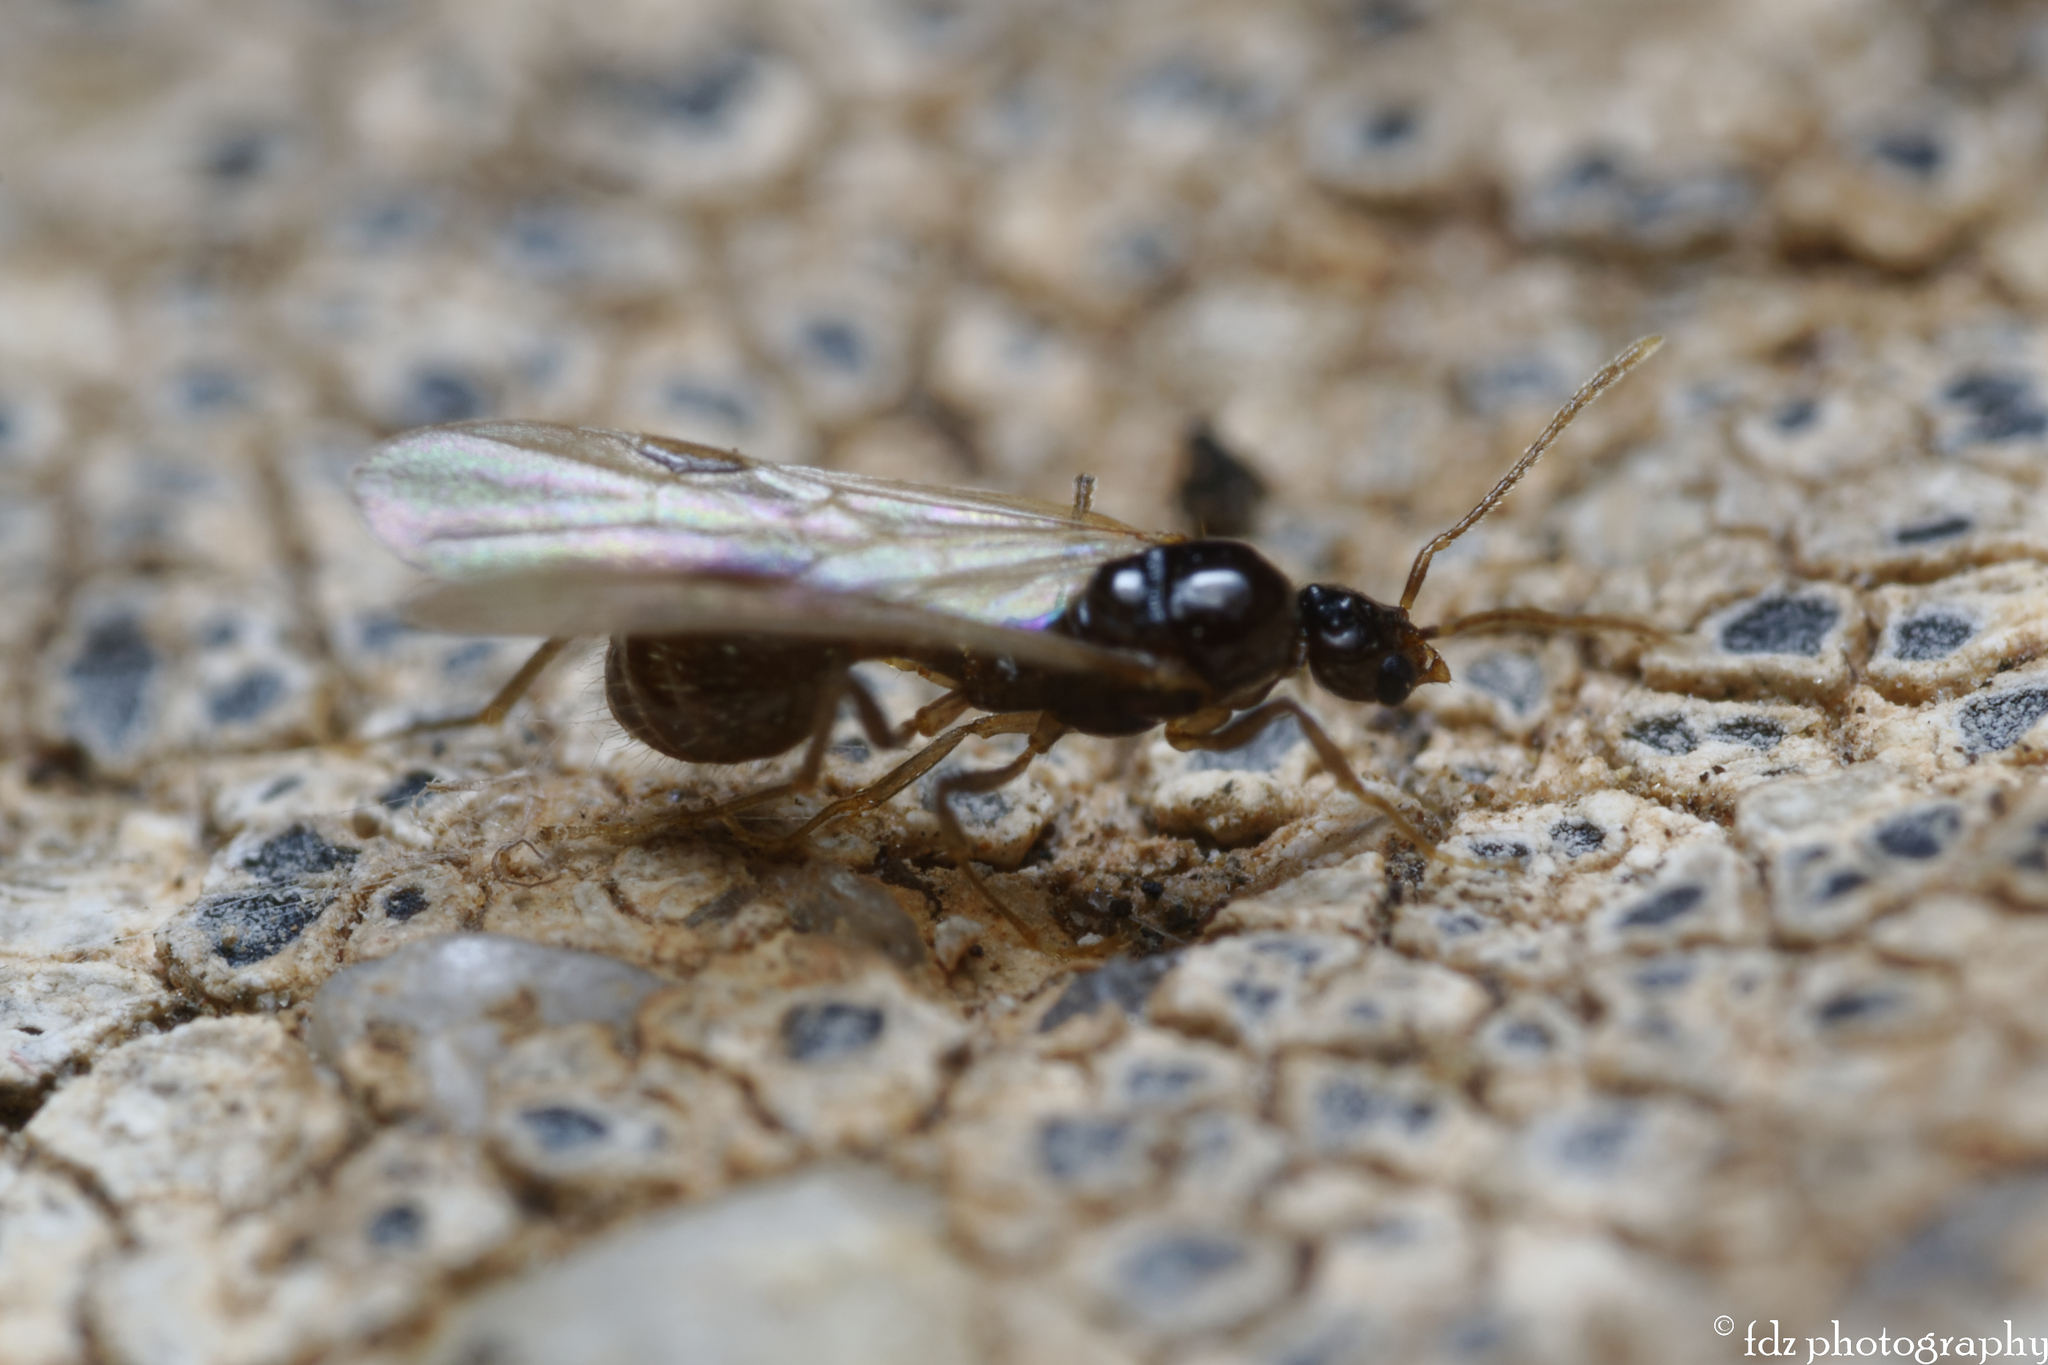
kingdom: Animalia
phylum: Arthropoda
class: Insecta
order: Hymenoptera
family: Formicidae
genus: Aphaenogaster
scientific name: Aphaenogaster dulcineae
